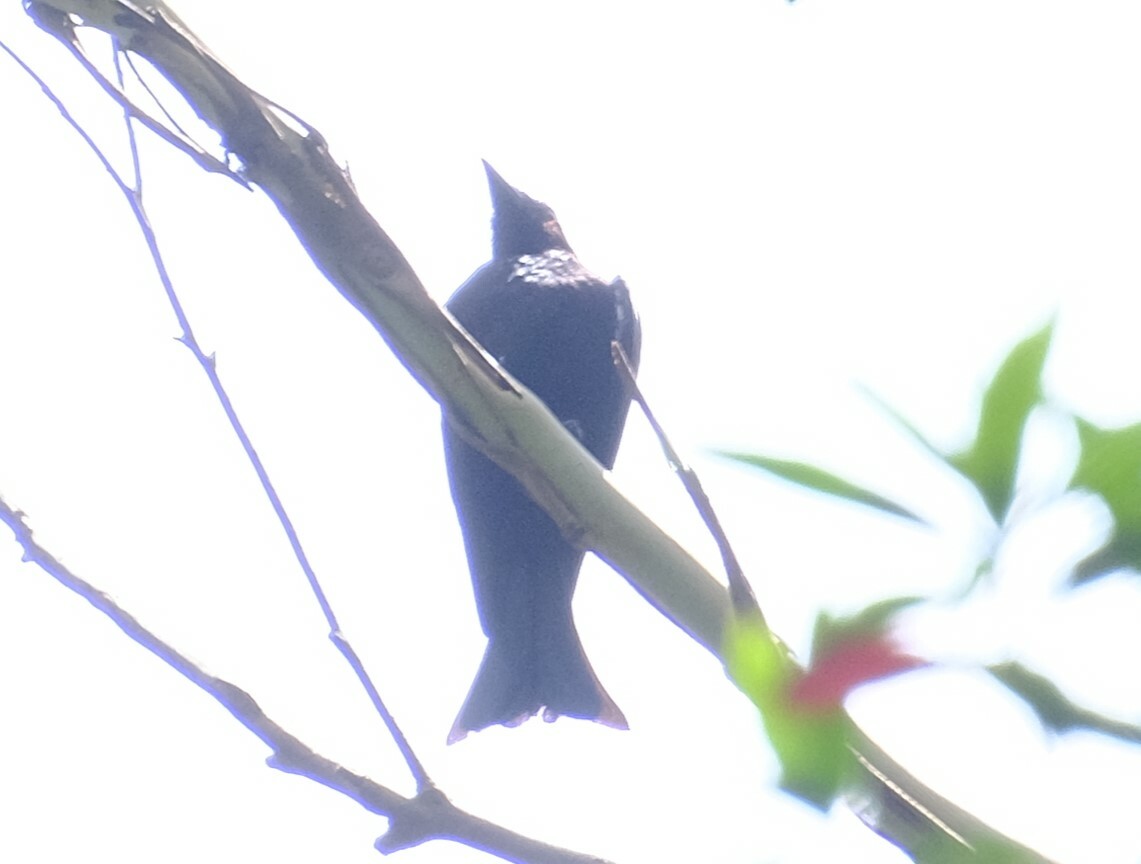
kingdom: Animalia
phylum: Chordata
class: Aves
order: Passeriformes
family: Dicruridae
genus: Dicrurus
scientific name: Dicrurus bracteatus
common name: Spangled drongo
